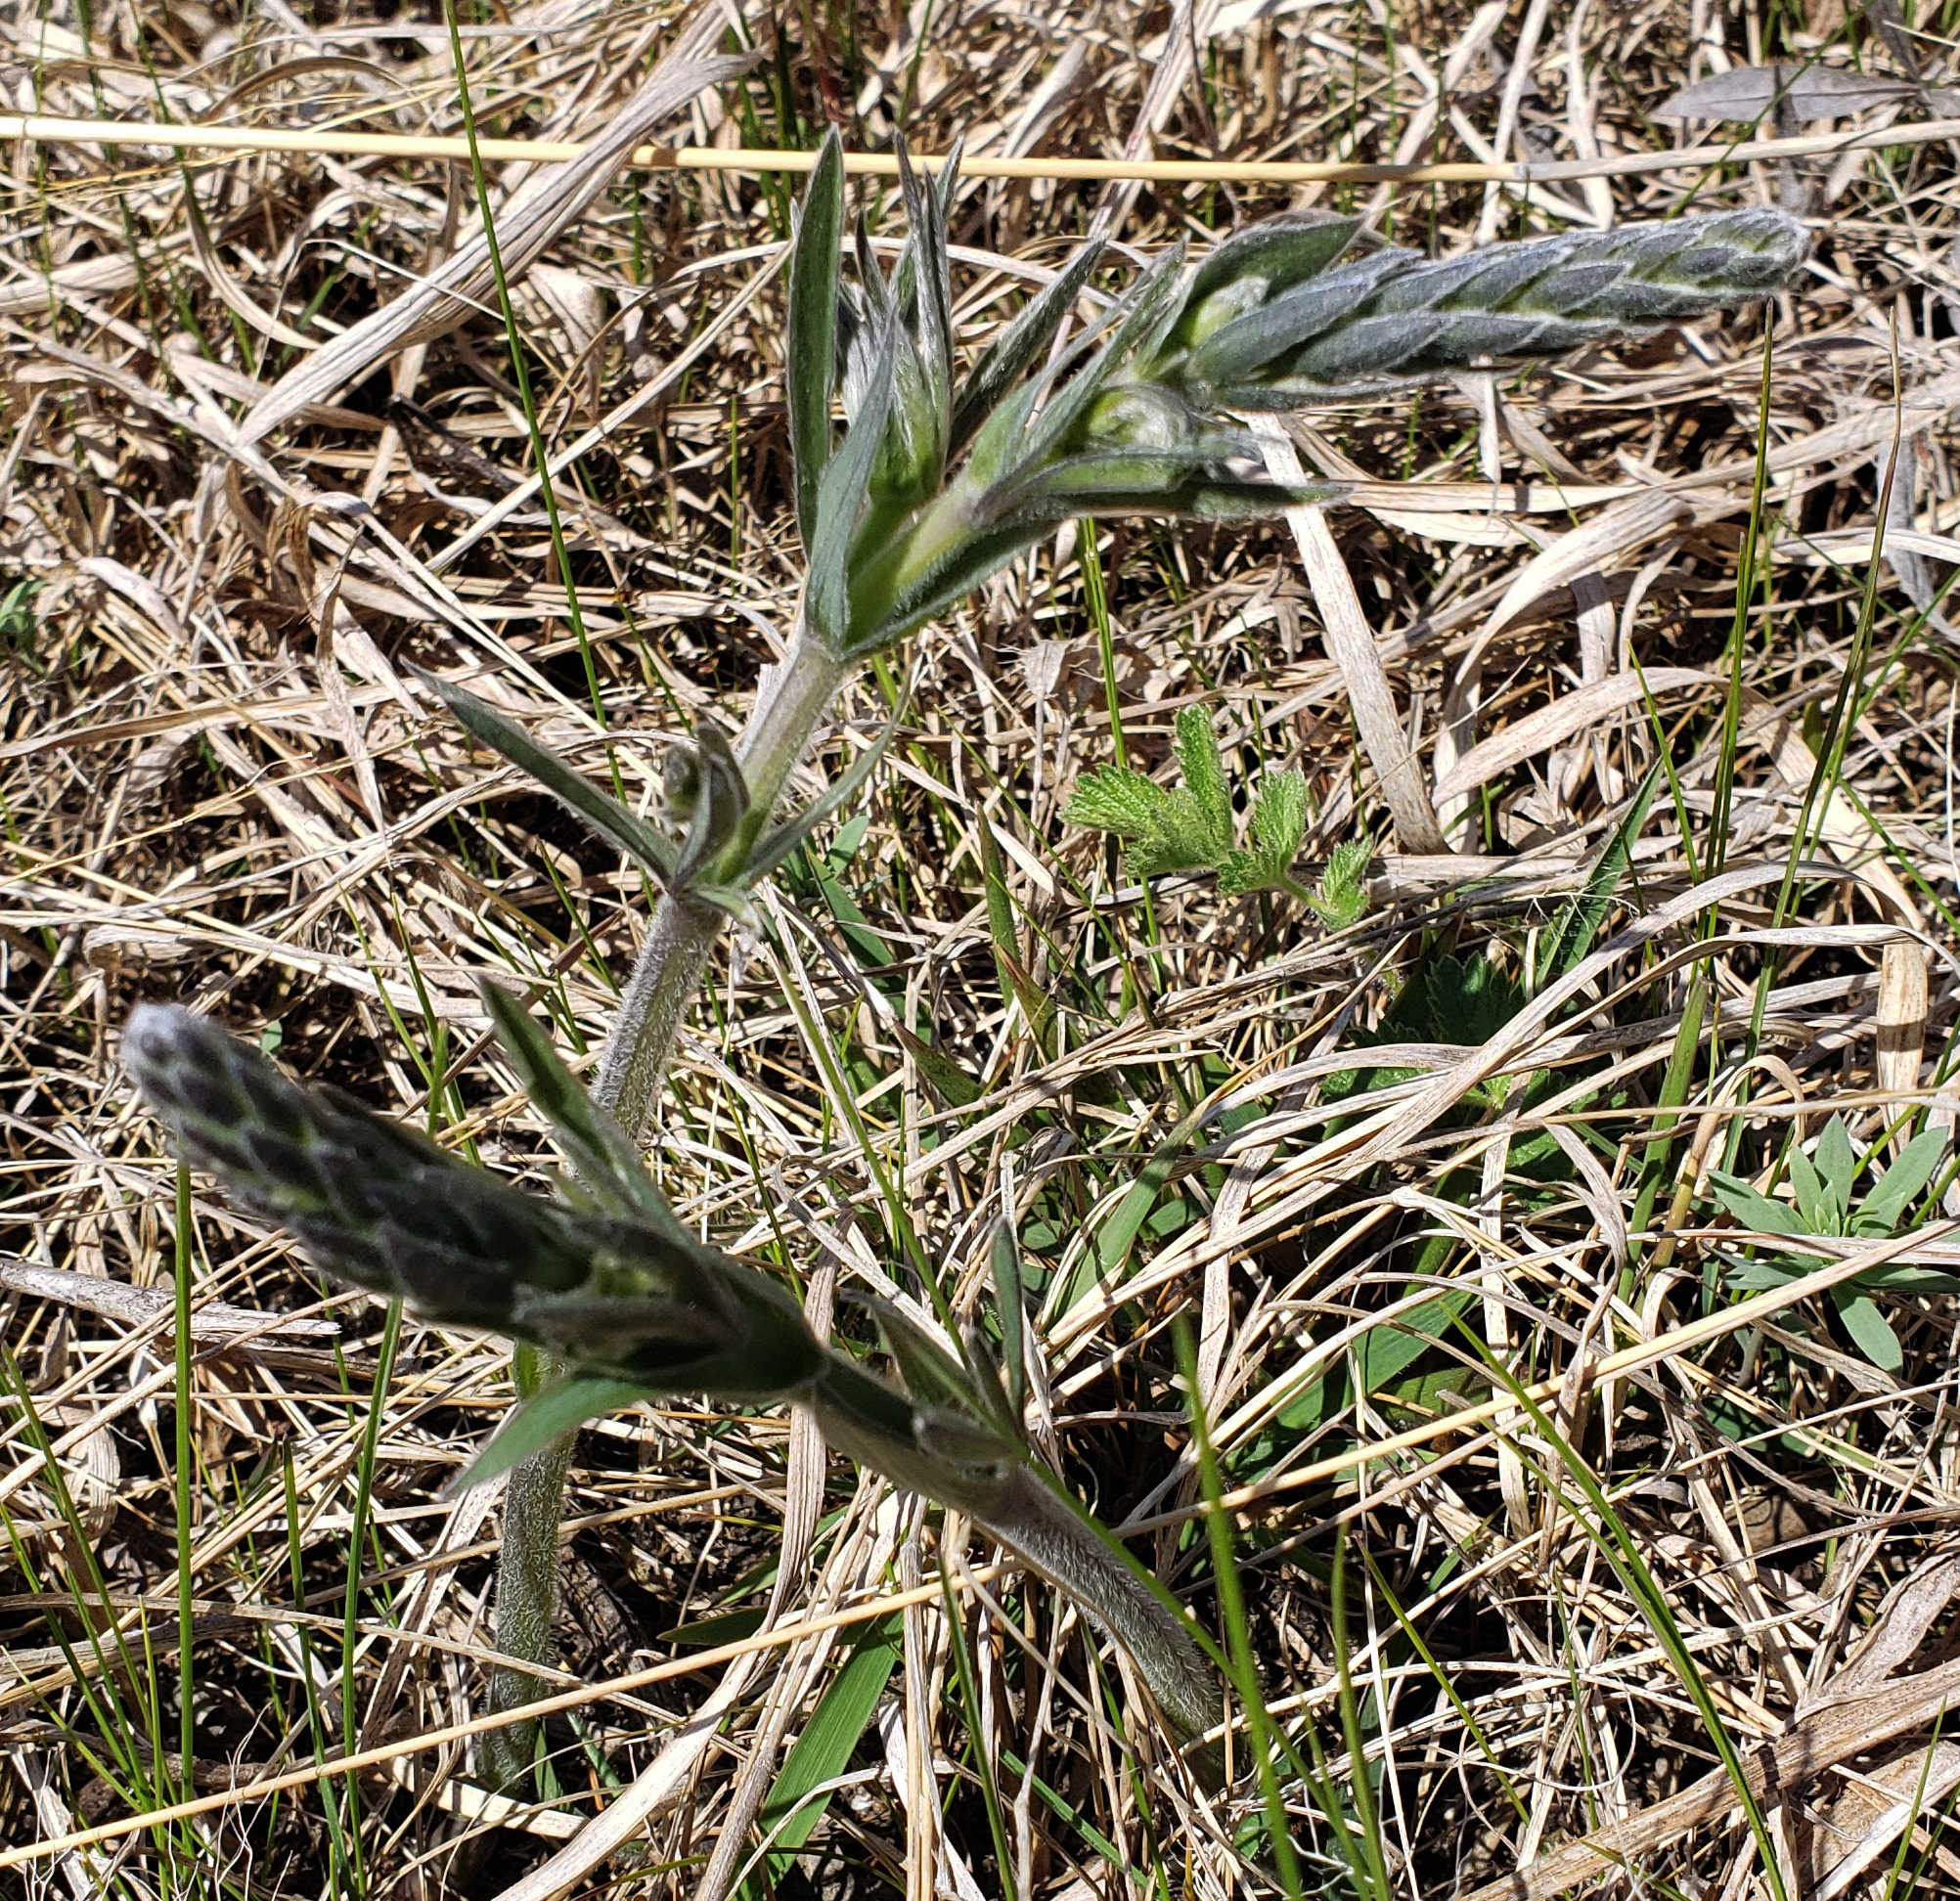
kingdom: Plantae
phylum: Tracheophyta
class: Magnoliopsida
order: Fabales
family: Fabaceae
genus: Baptisia
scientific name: Baptisia bracteata
